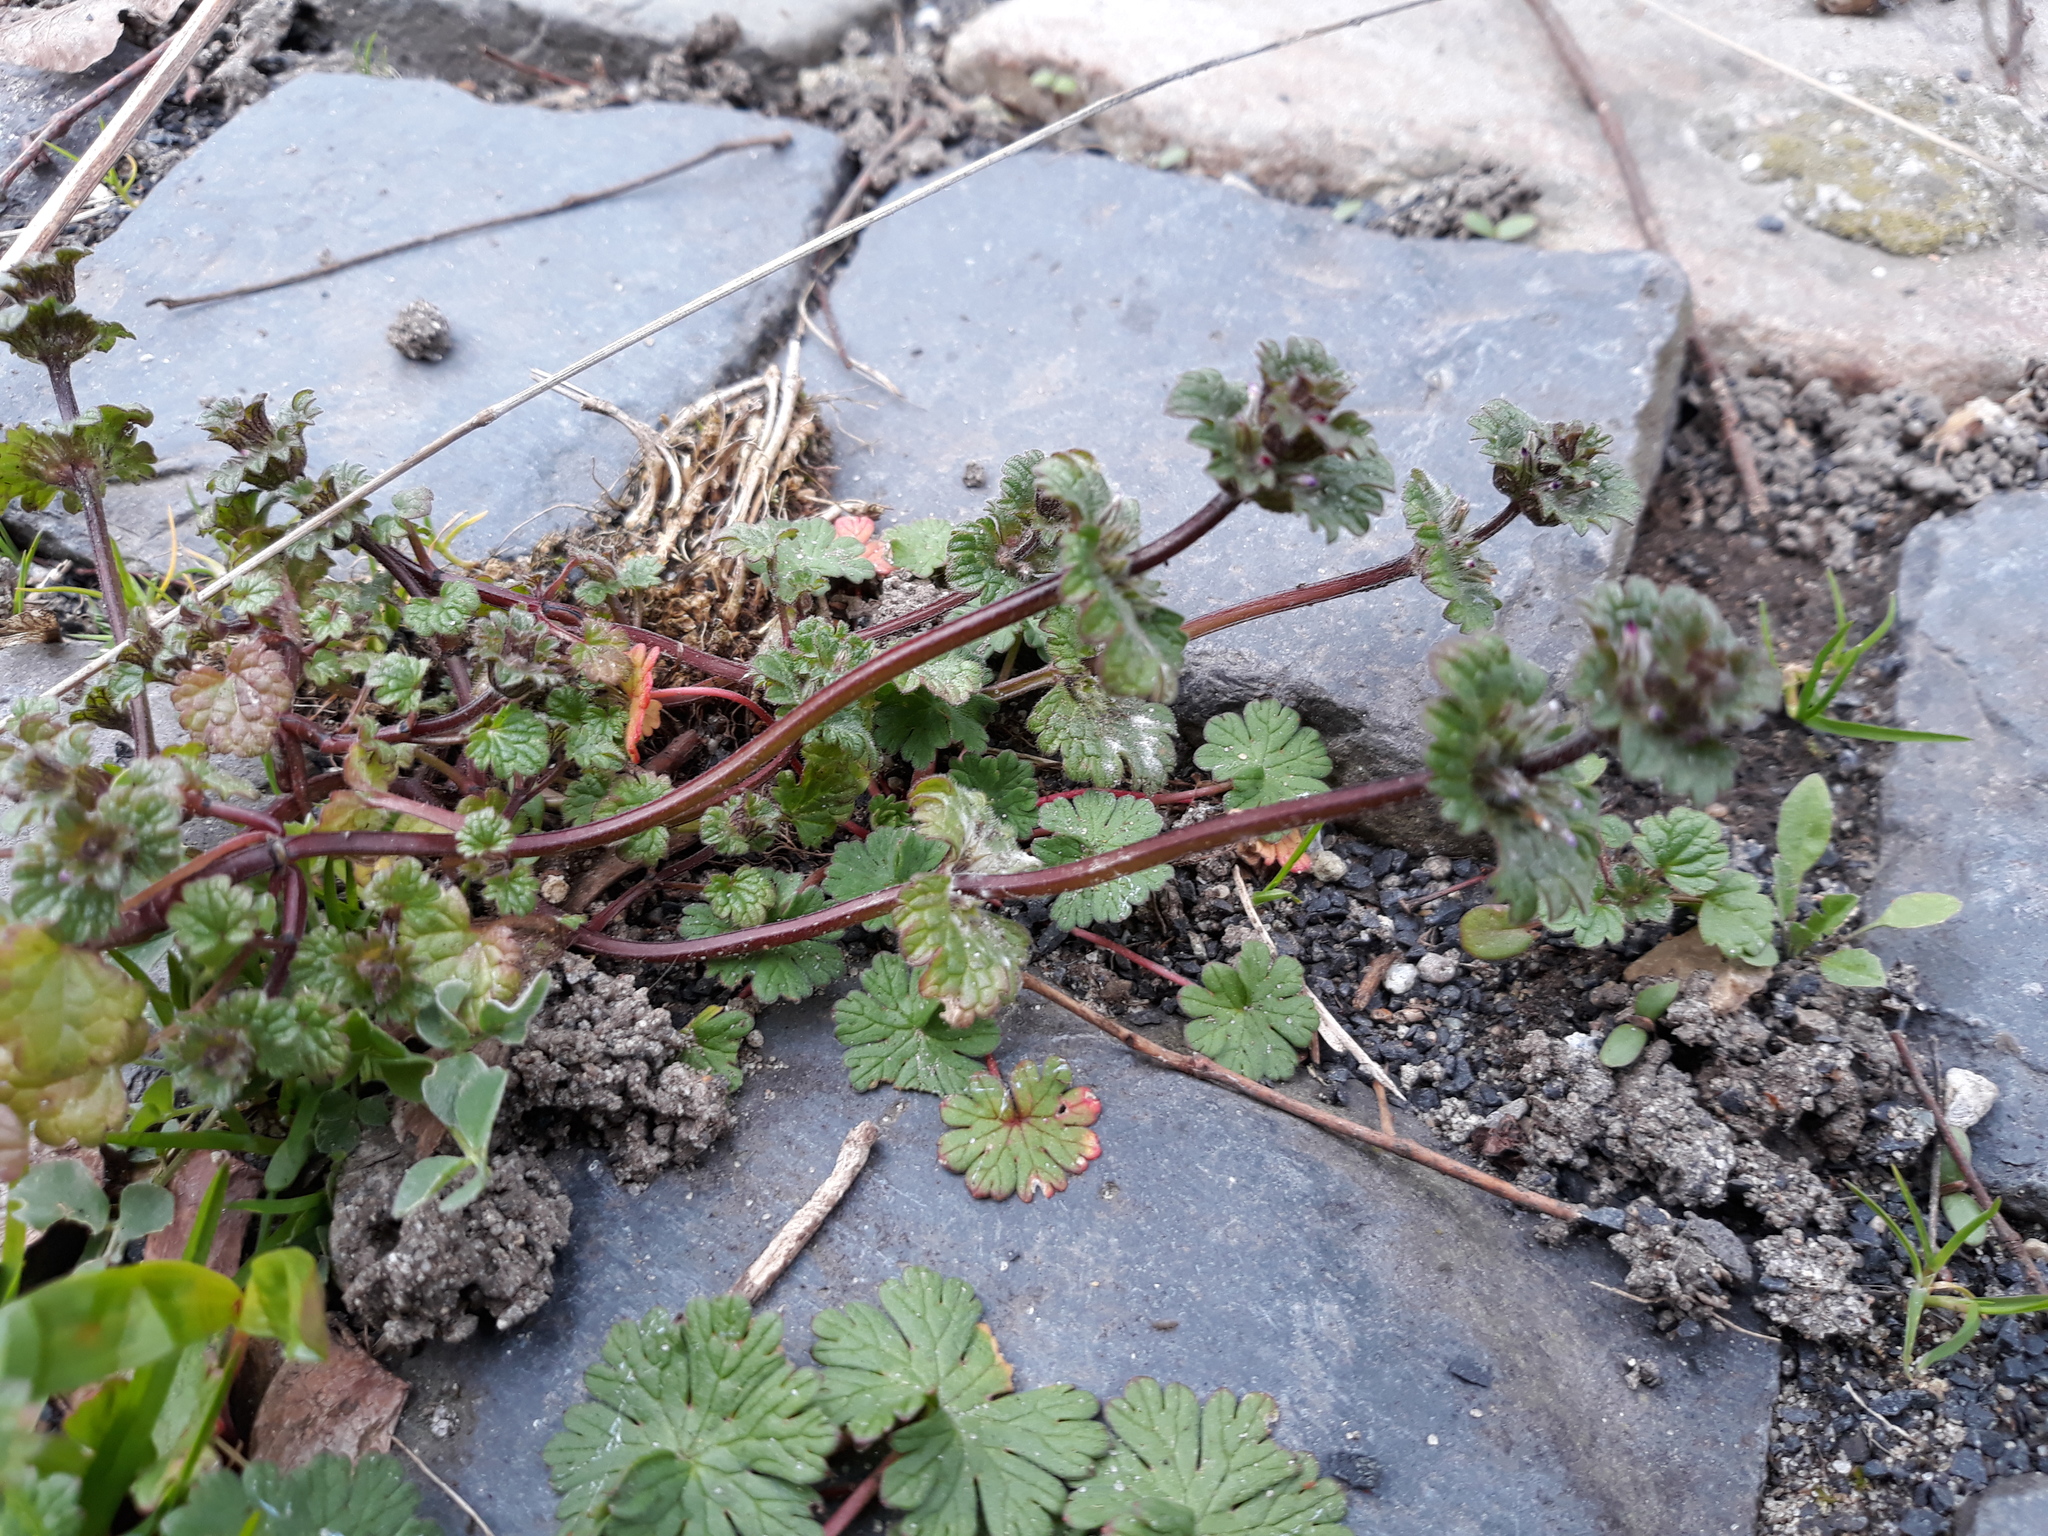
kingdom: Plantae
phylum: Tracheophyta
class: Magnoliopsida
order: Lamiales
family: Lamiaceae
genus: Lamium
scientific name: Lamium amplexicaule
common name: Henbit dead-nettle
